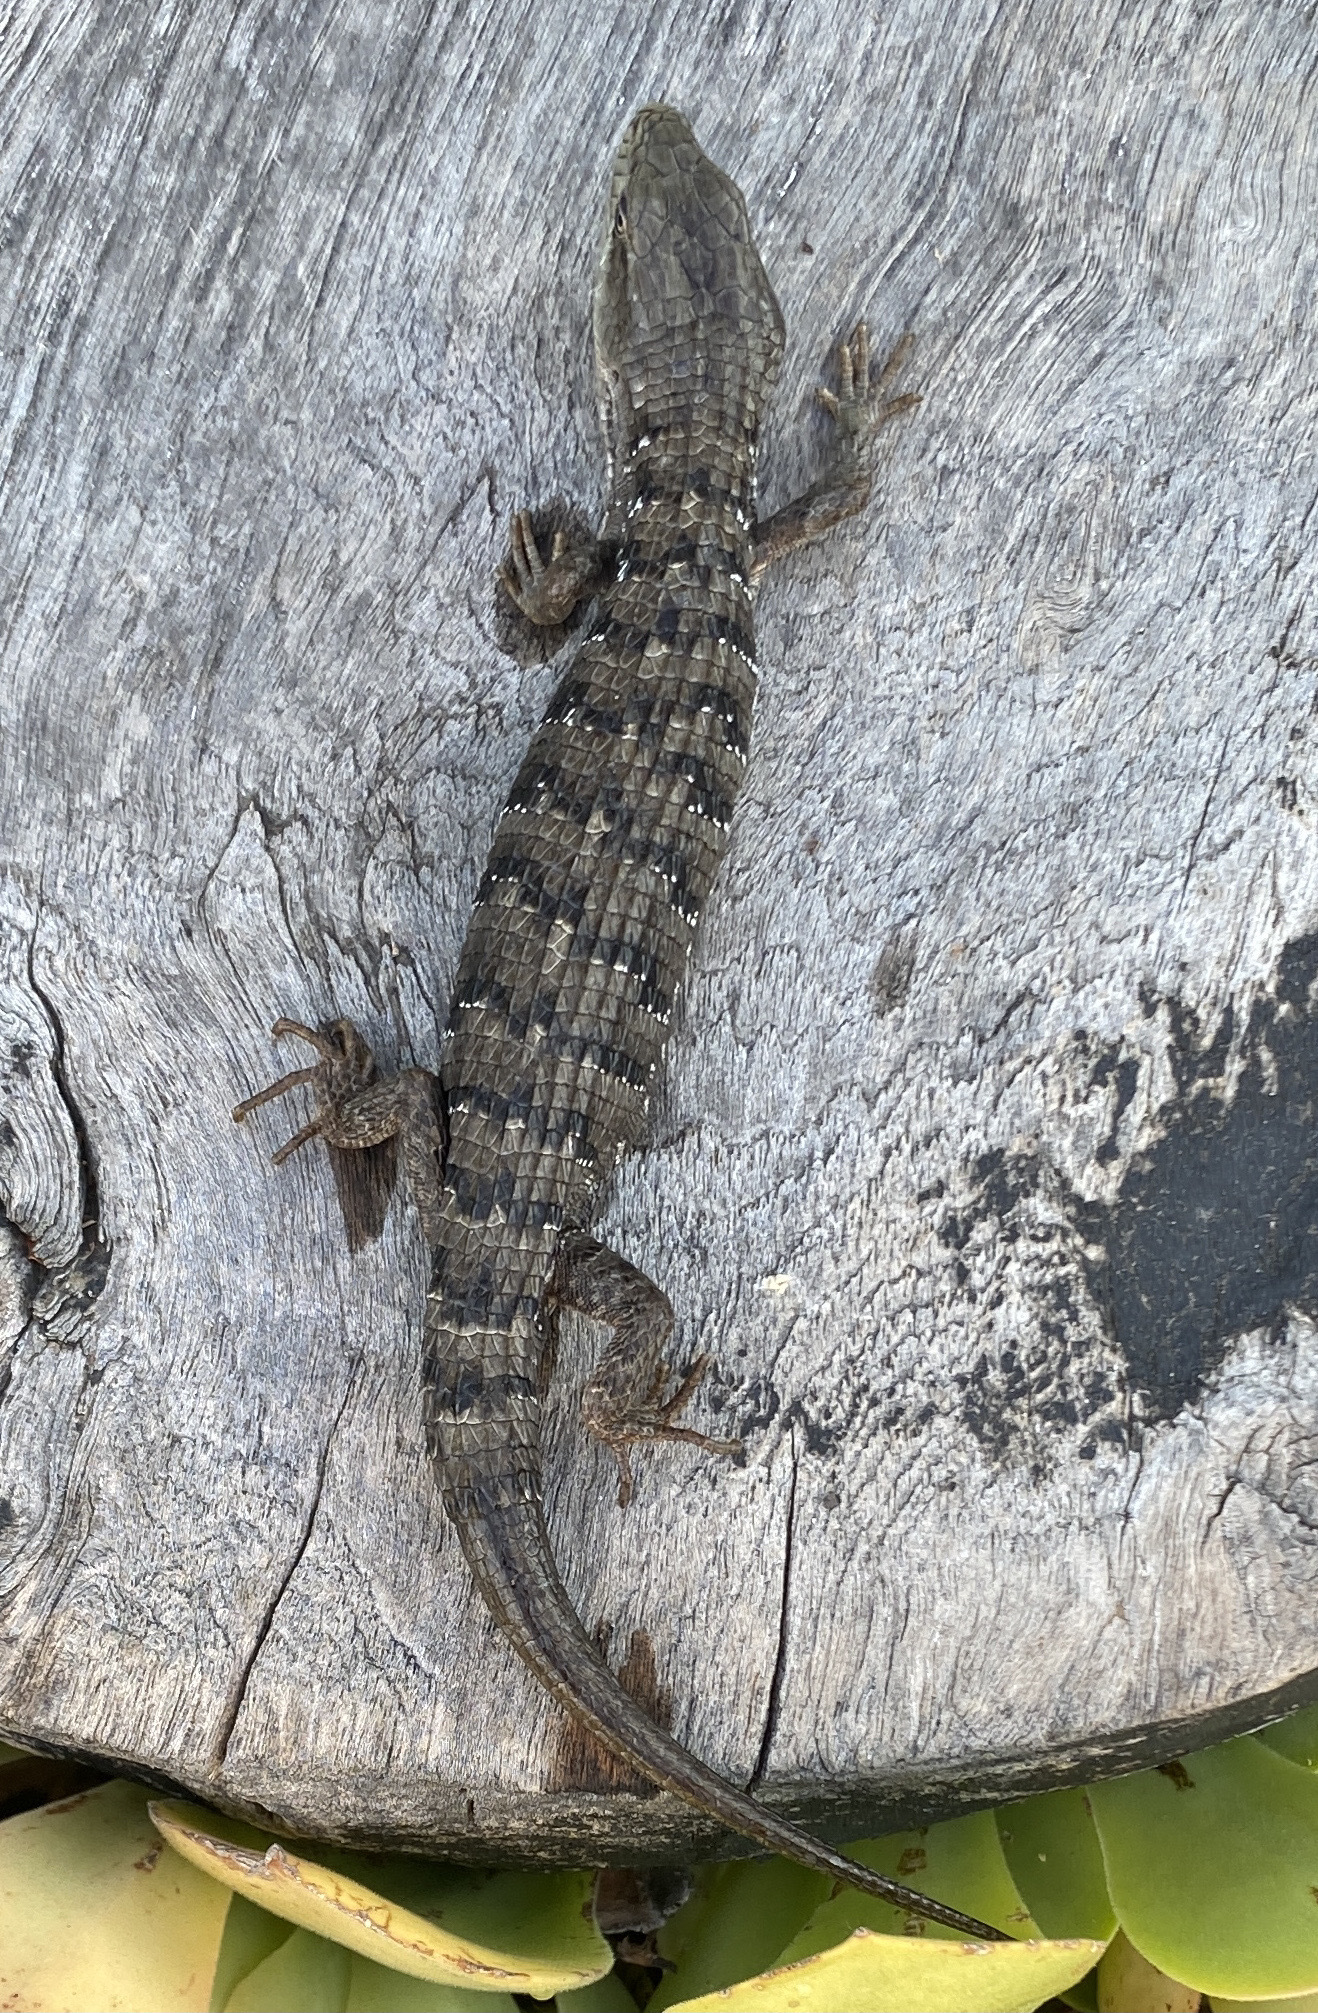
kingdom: Animalia
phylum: Chordata
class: Squamata
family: Anguidae
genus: Elgaria
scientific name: Elgaria multicarinata
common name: Southern alligator lizard
